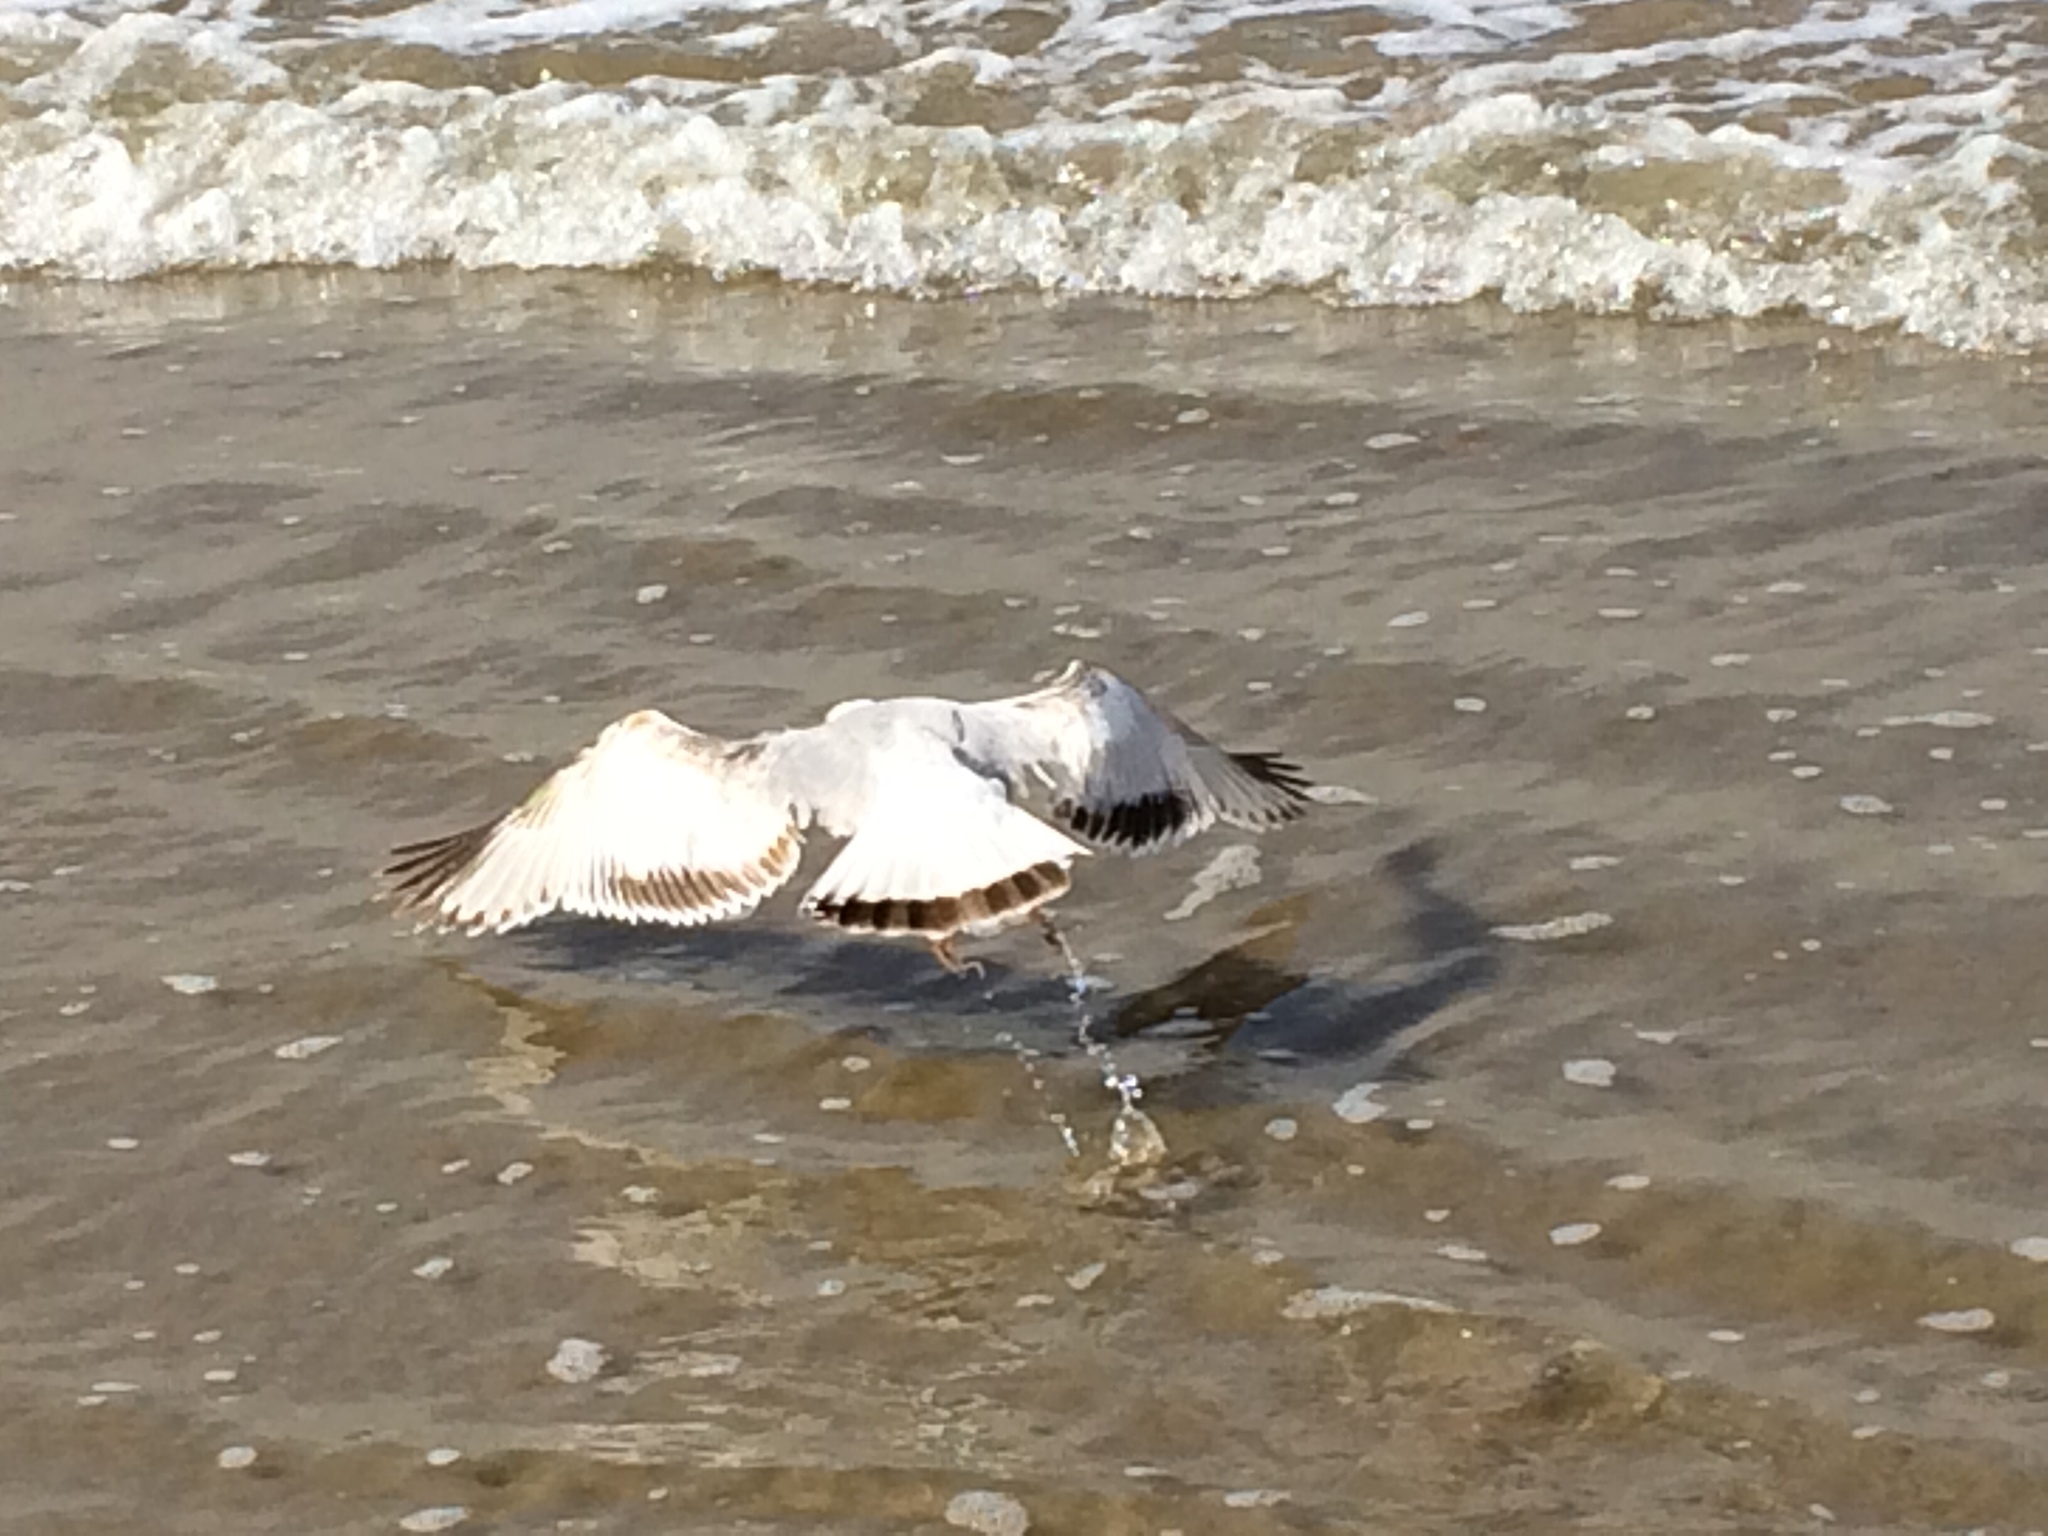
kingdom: Animalia
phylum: Chordata
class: Aves
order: Charadriiformes
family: Laridae
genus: Larus
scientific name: Larus delawarensis
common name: Ring-billed gull
